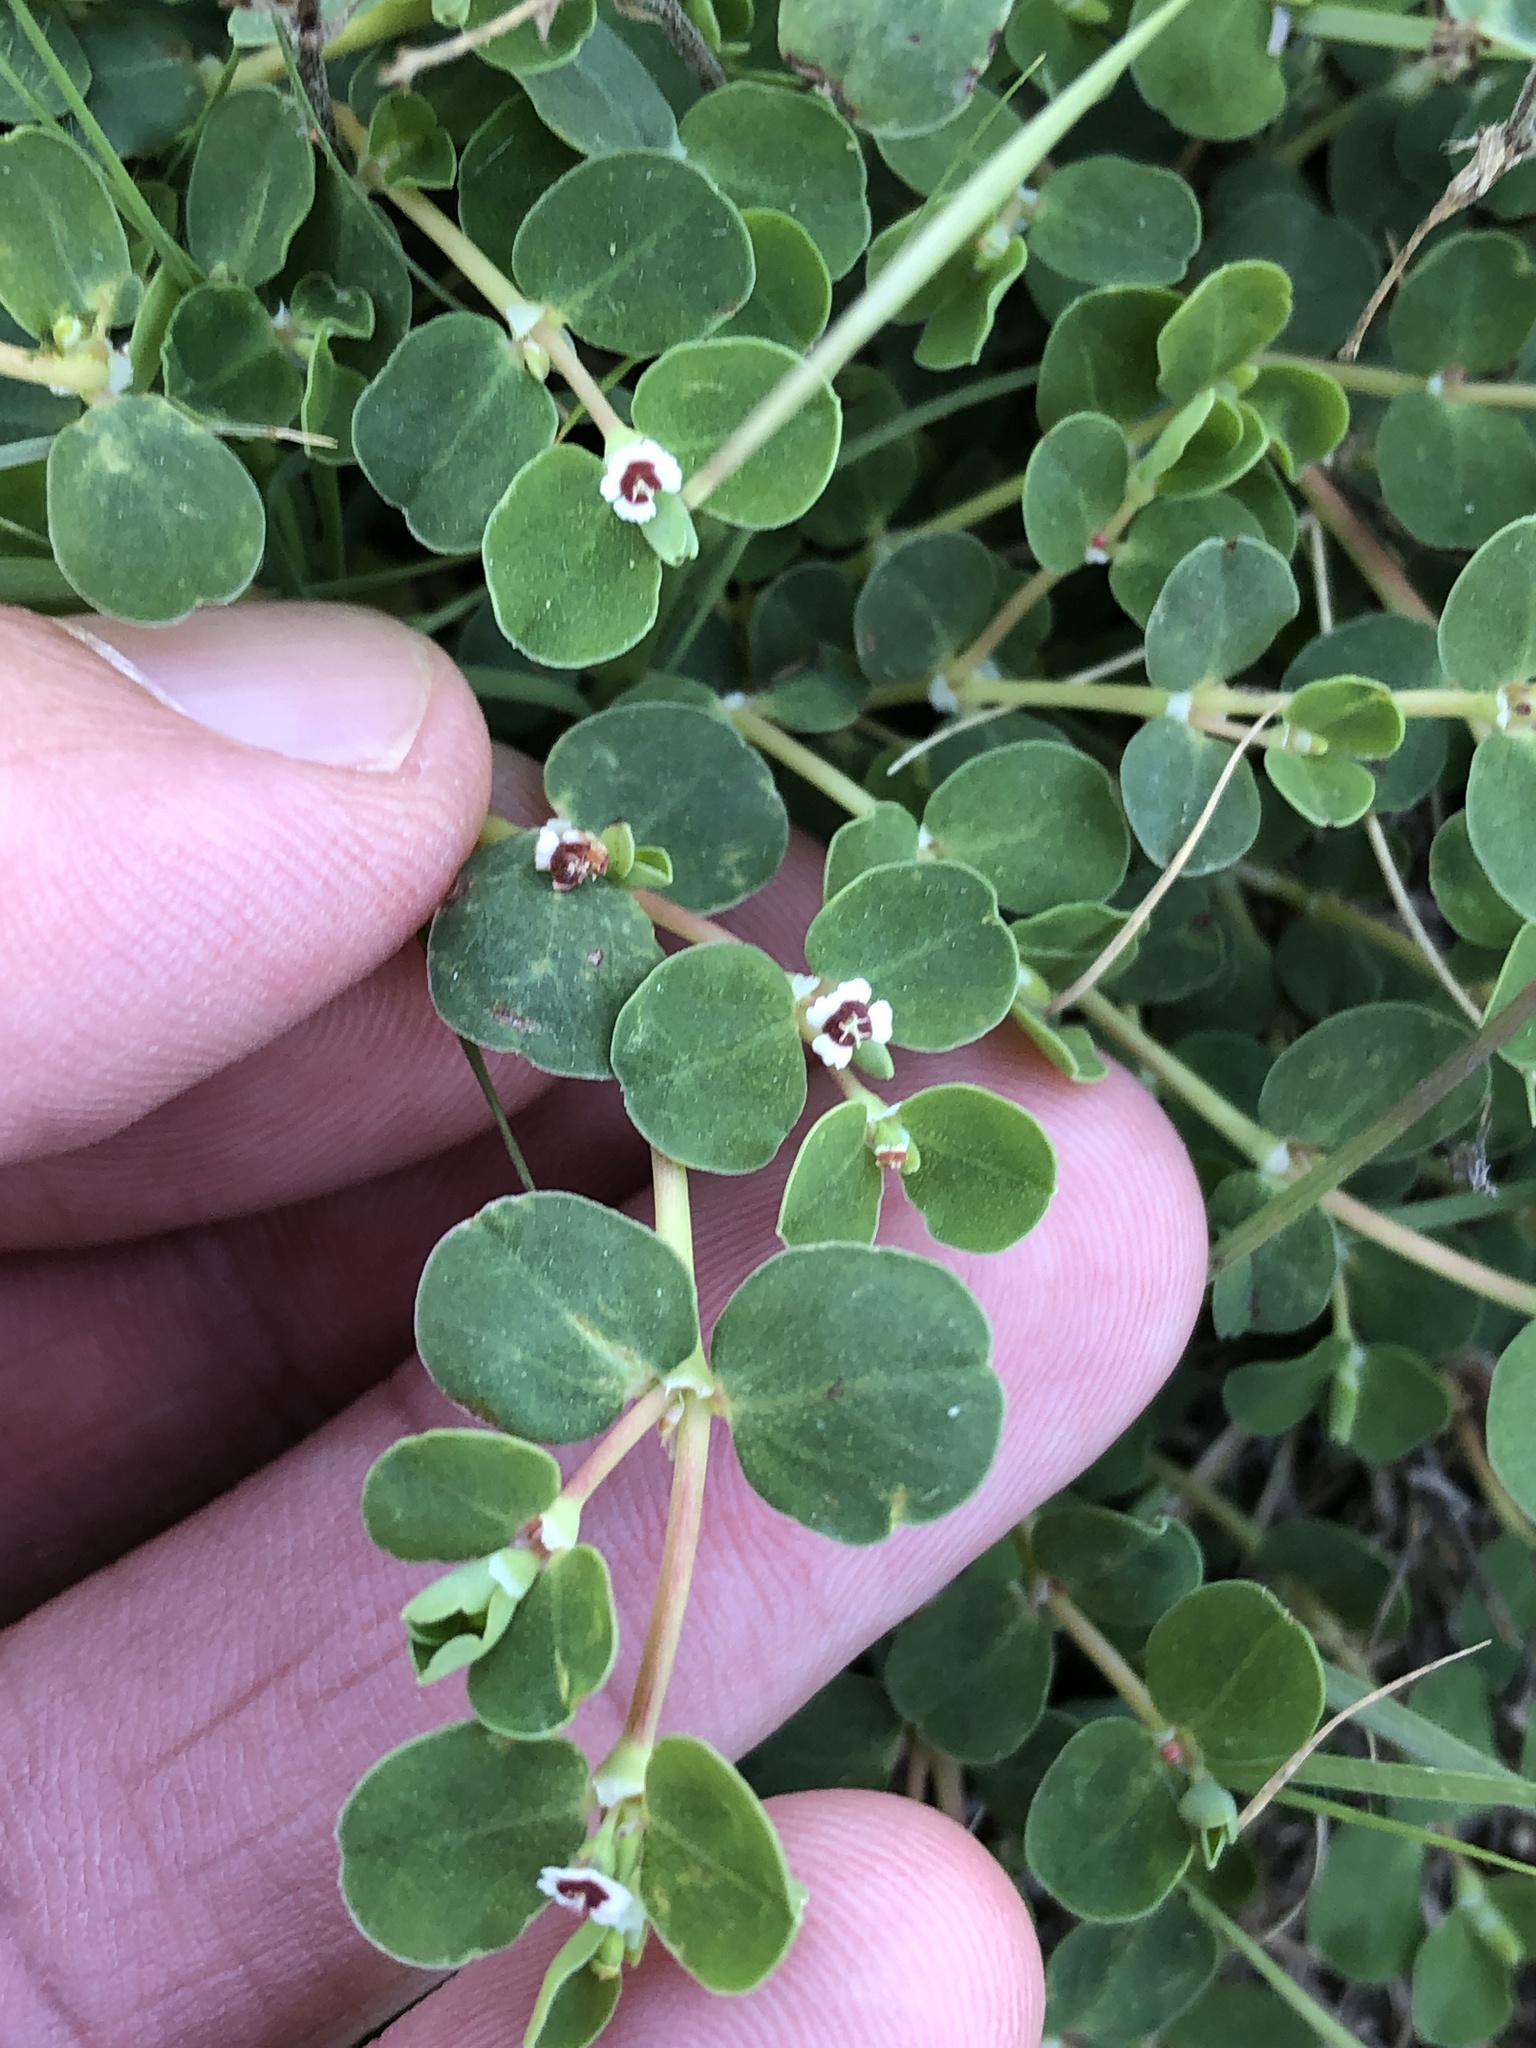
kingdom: Plantae
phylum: Tracheophyta
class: Magnoliopsida
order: Malpighiales
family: Euphorbiaceae
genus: Euphorbia
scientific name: Euphorbia albomarginata
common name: Whitemargin sandmat
